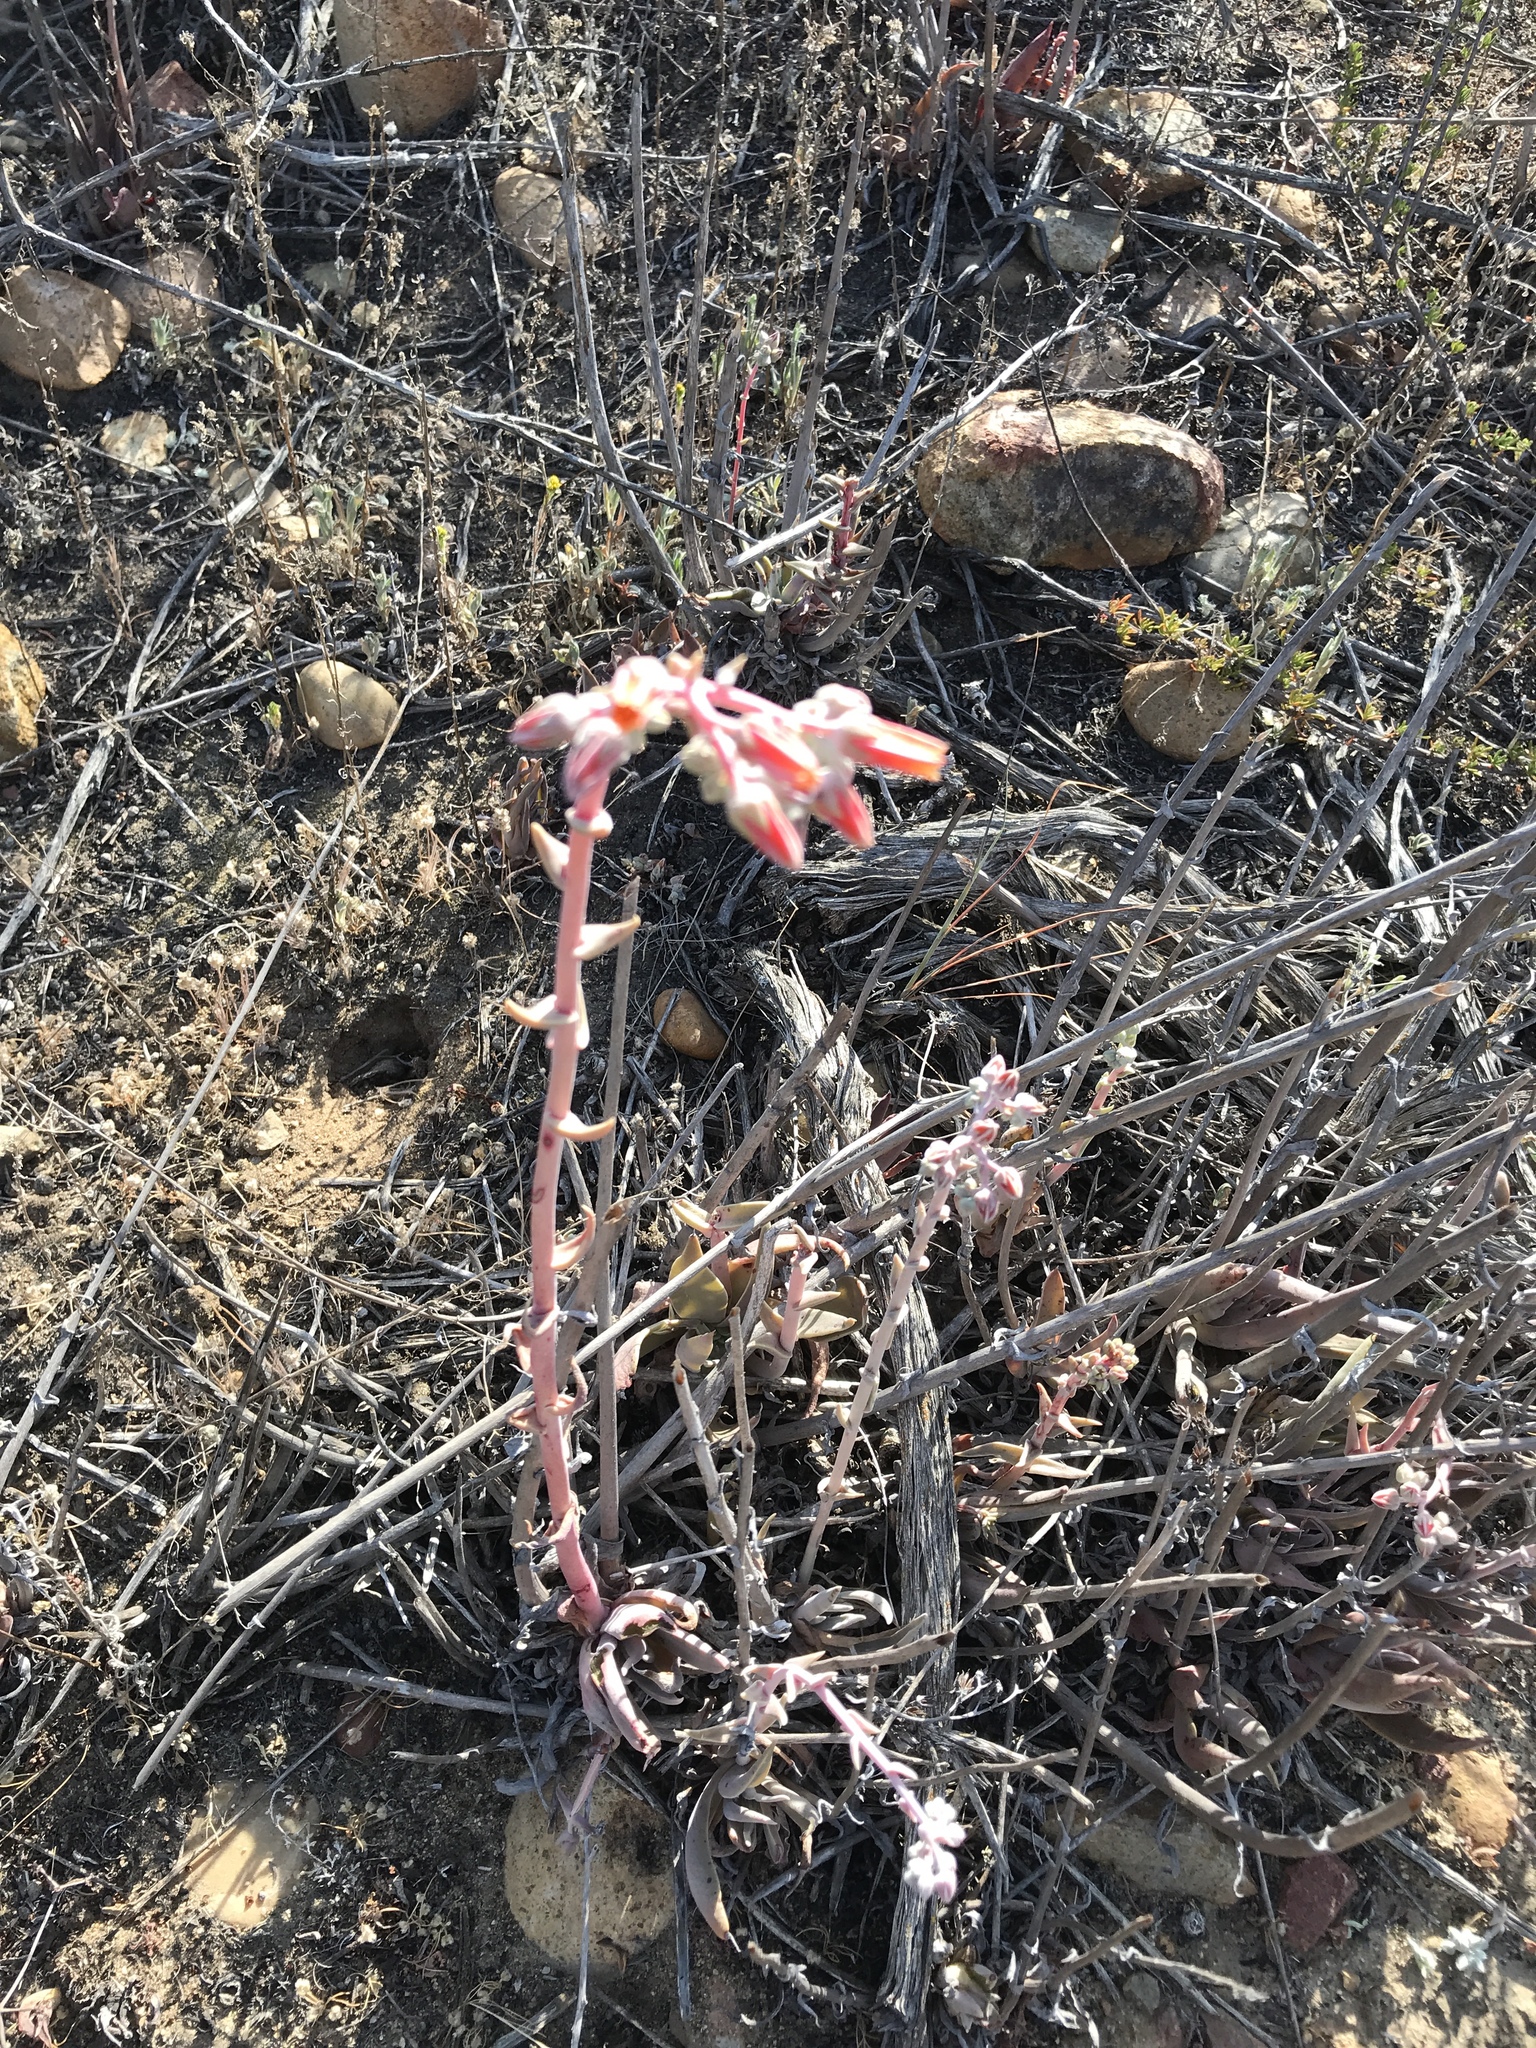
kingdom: Plantae
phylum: Tracheophyta
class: Magnoliopsida
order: Saxifragales
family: Crassulaceae
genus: Dudleya
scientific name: Dudleya lanceolata
